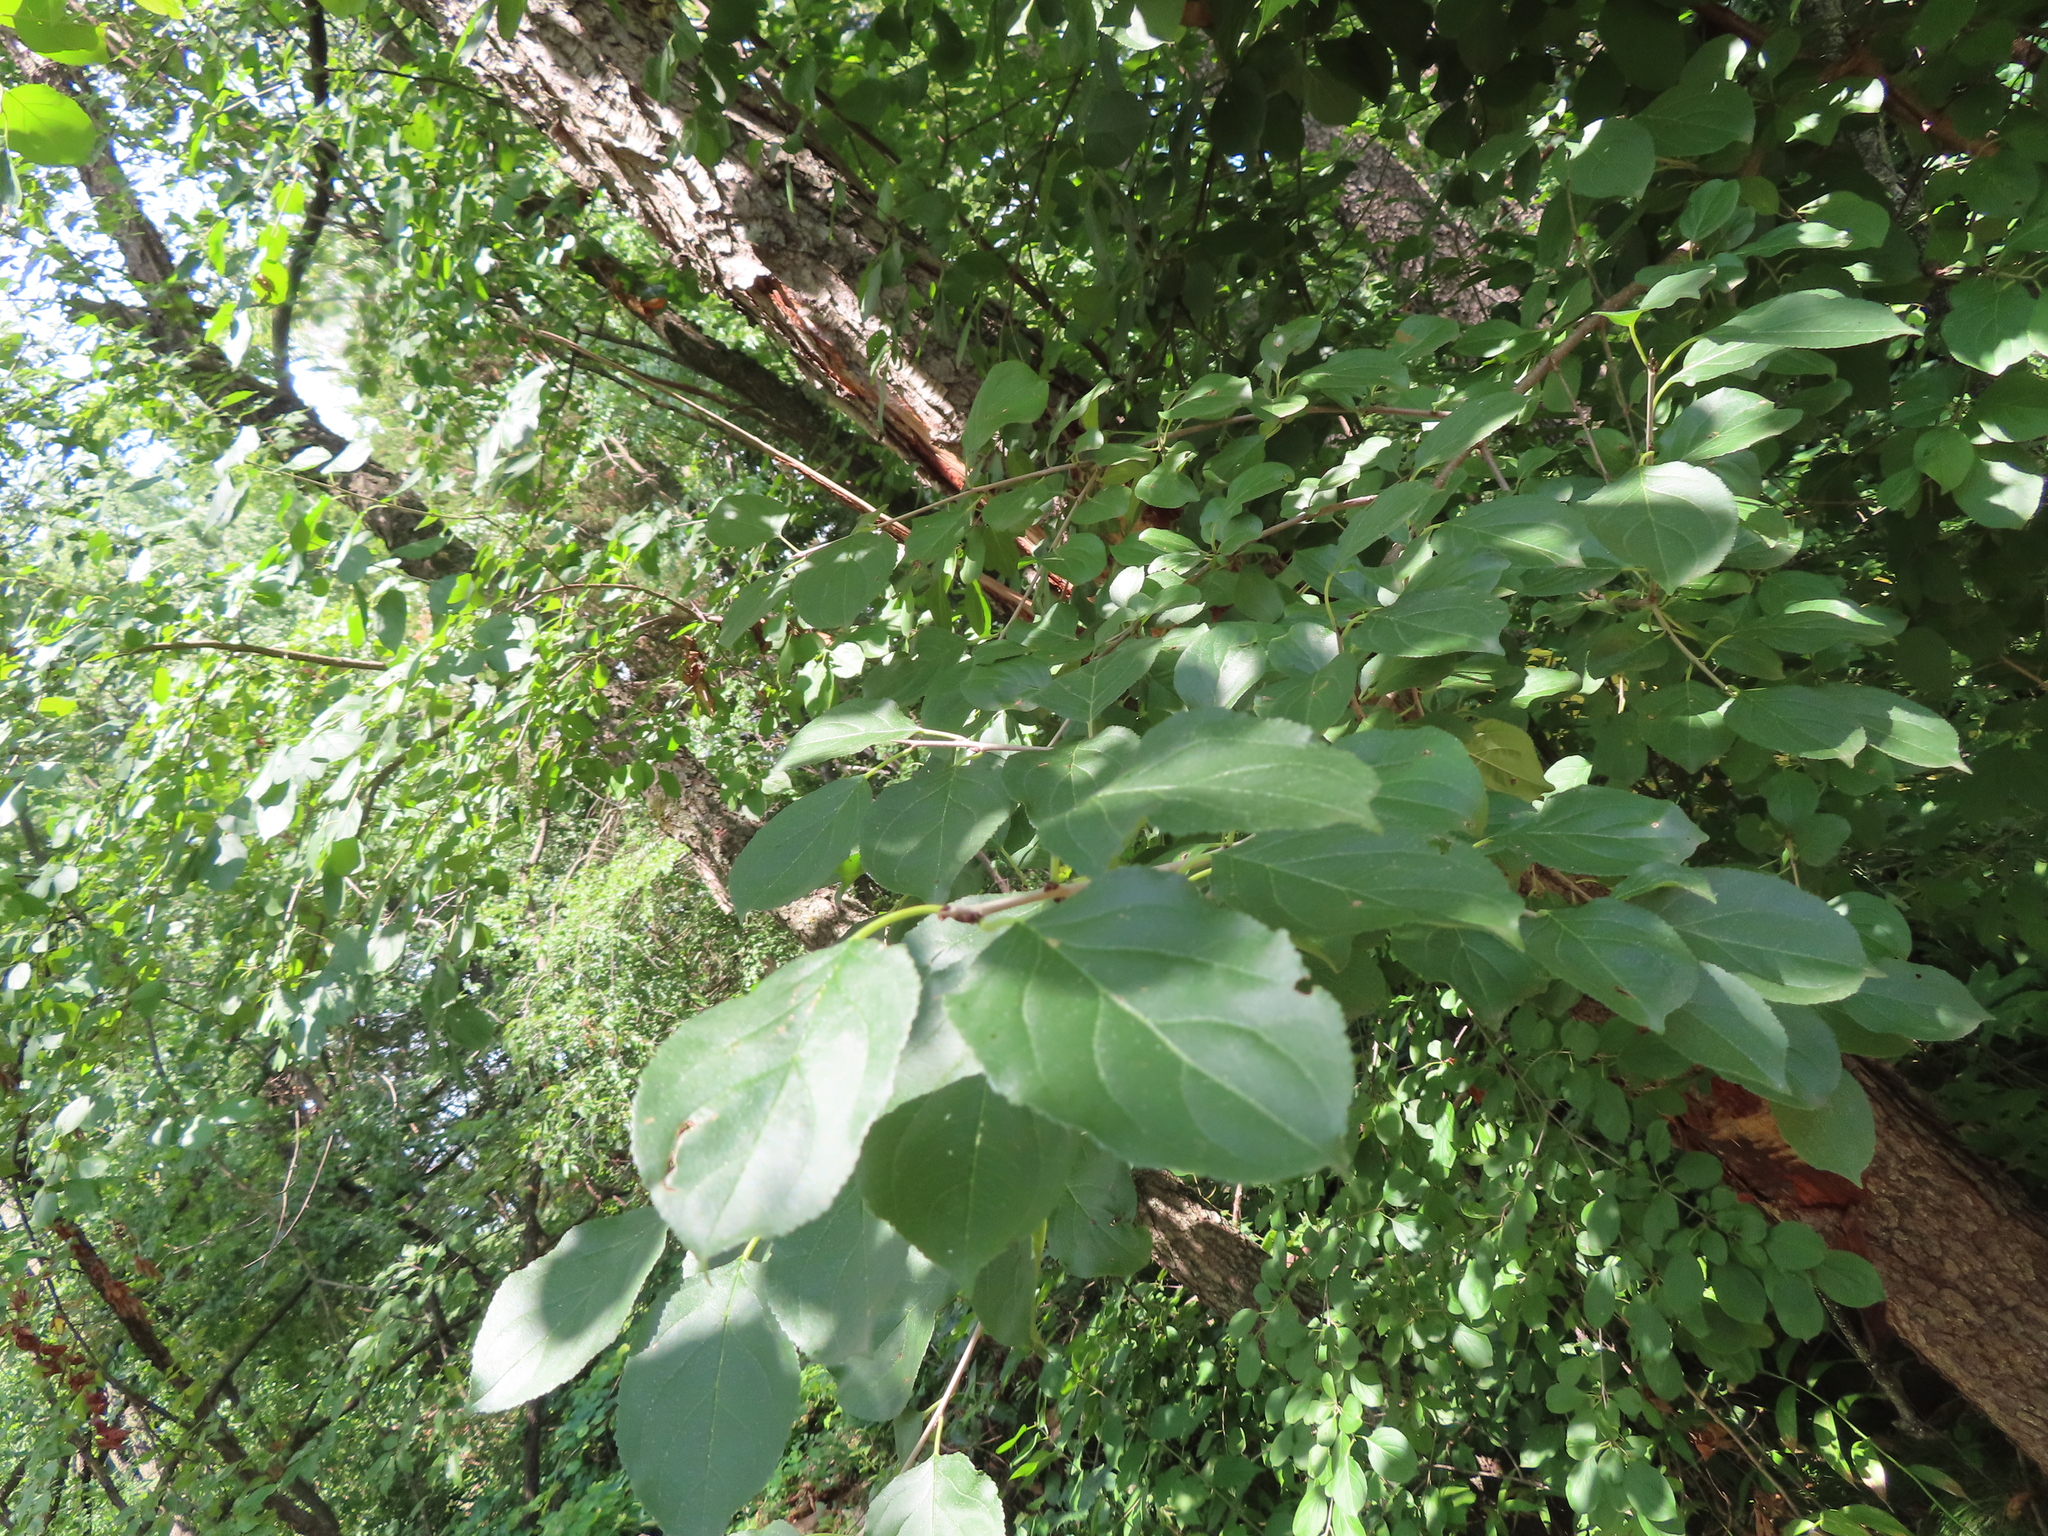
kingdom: Plantae
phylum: Tracheophyta
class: Magnoliopsida
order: Rosales
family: Rhamnaceae
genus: Rhamnus
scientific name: Rhamnus cathartica
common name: Common buckthorn
